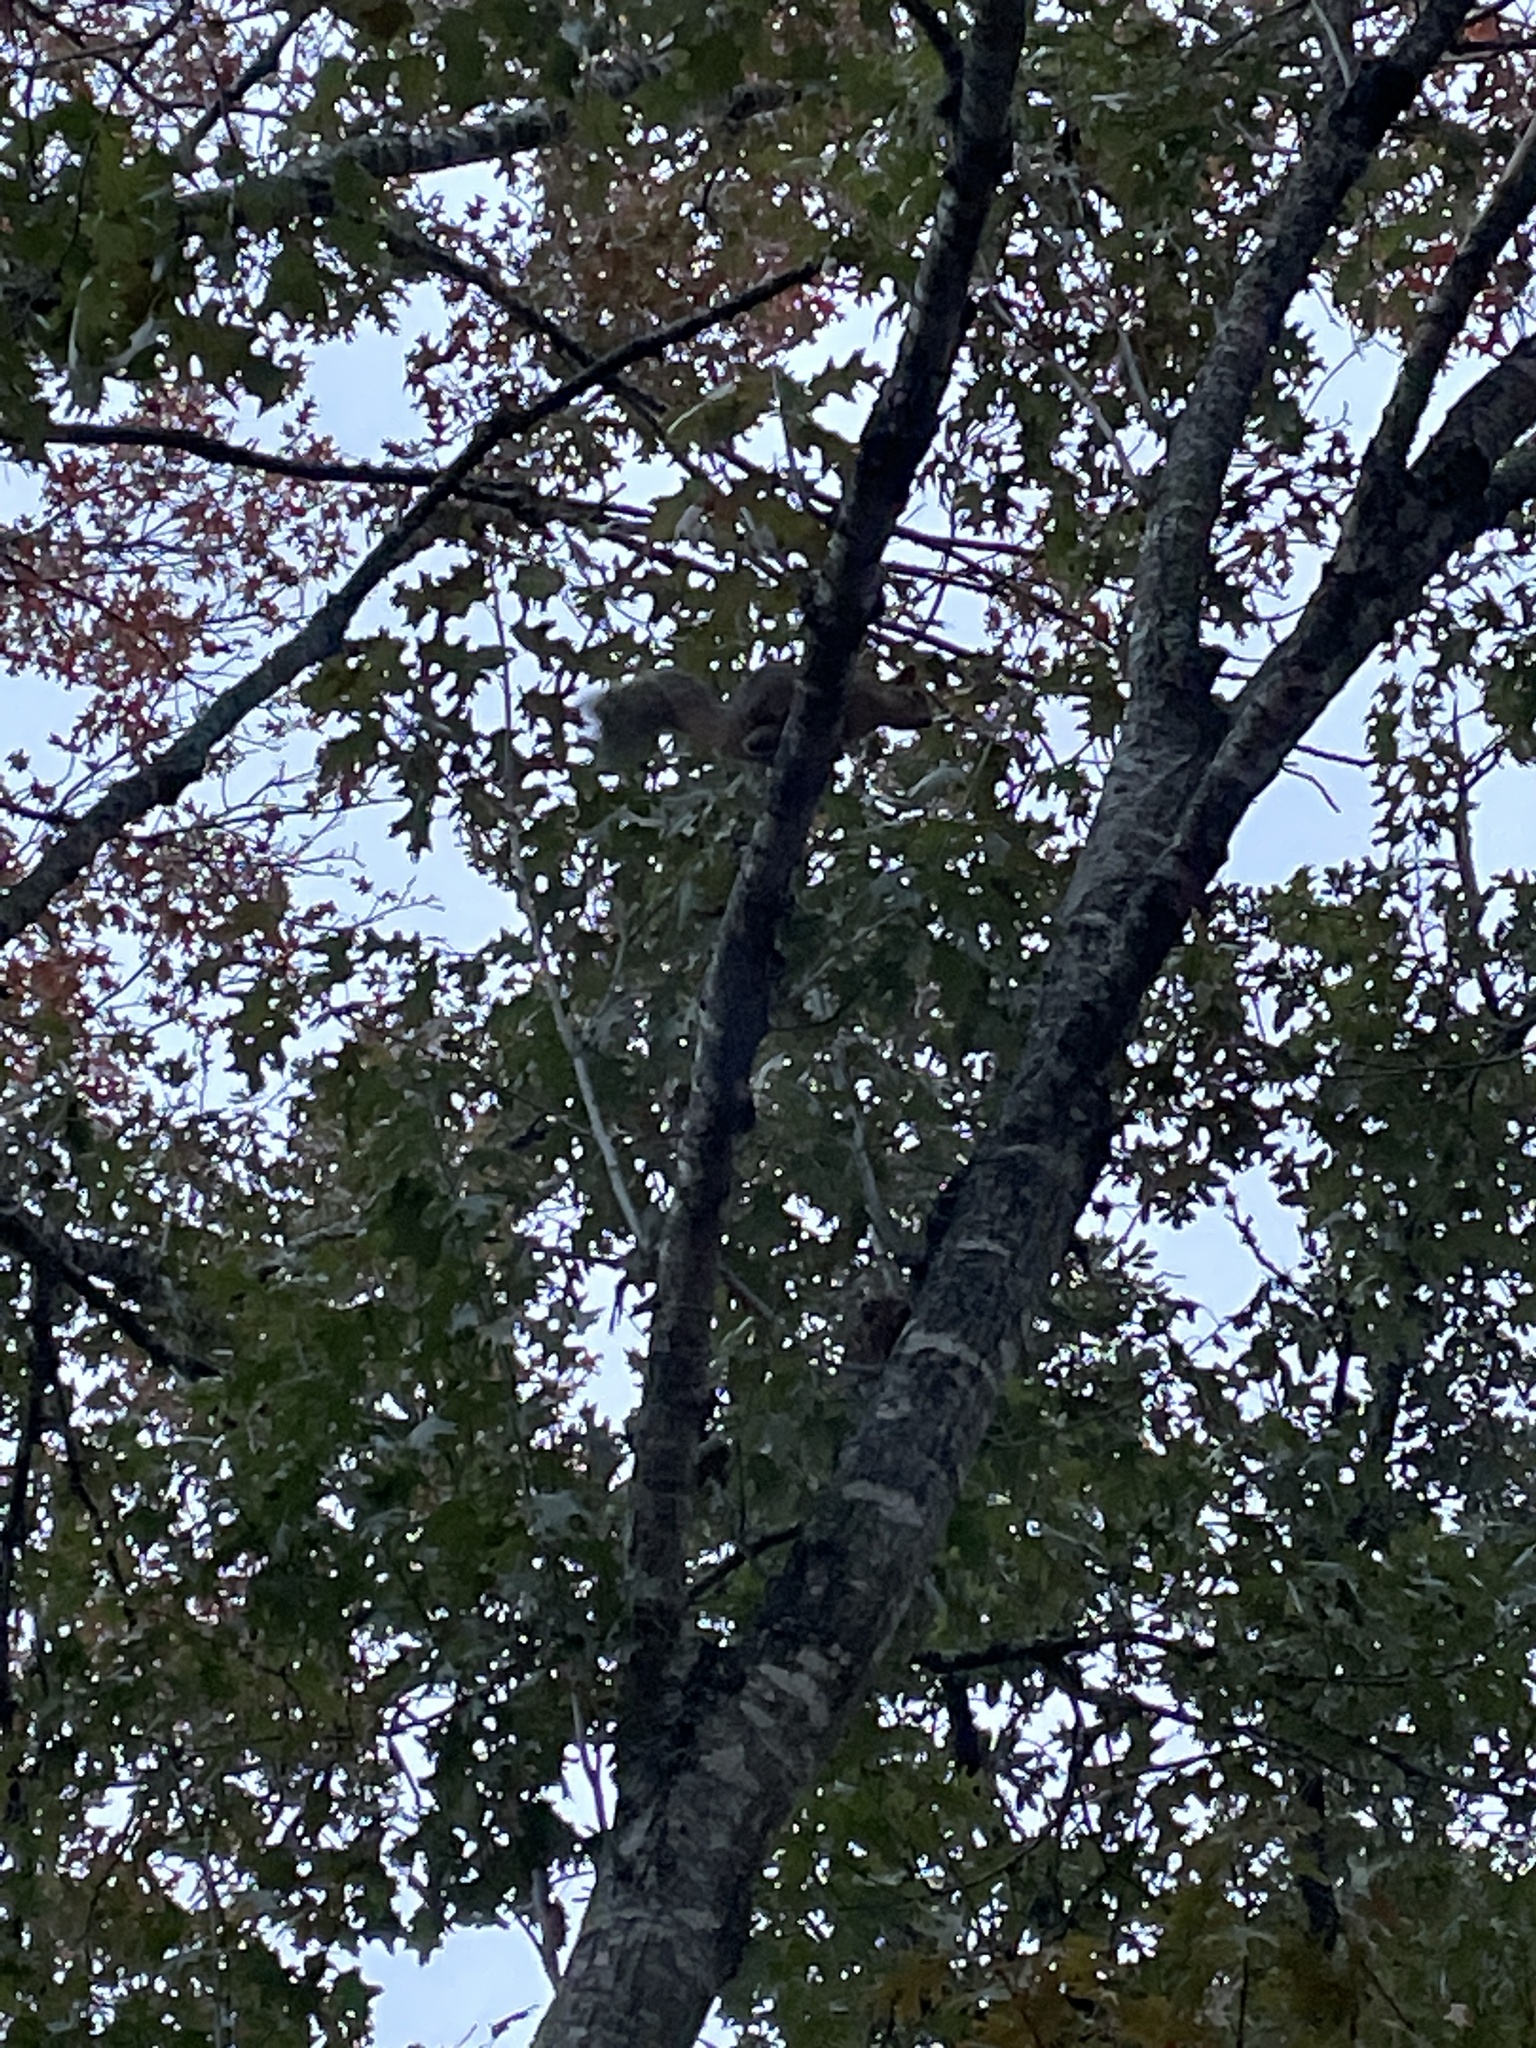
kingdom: Animalia
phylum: Chordata
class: Mammalia
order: Rodentia
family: Sciuridae
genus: Sciurus
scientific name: Sciurus niger
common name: Fox squirrel
